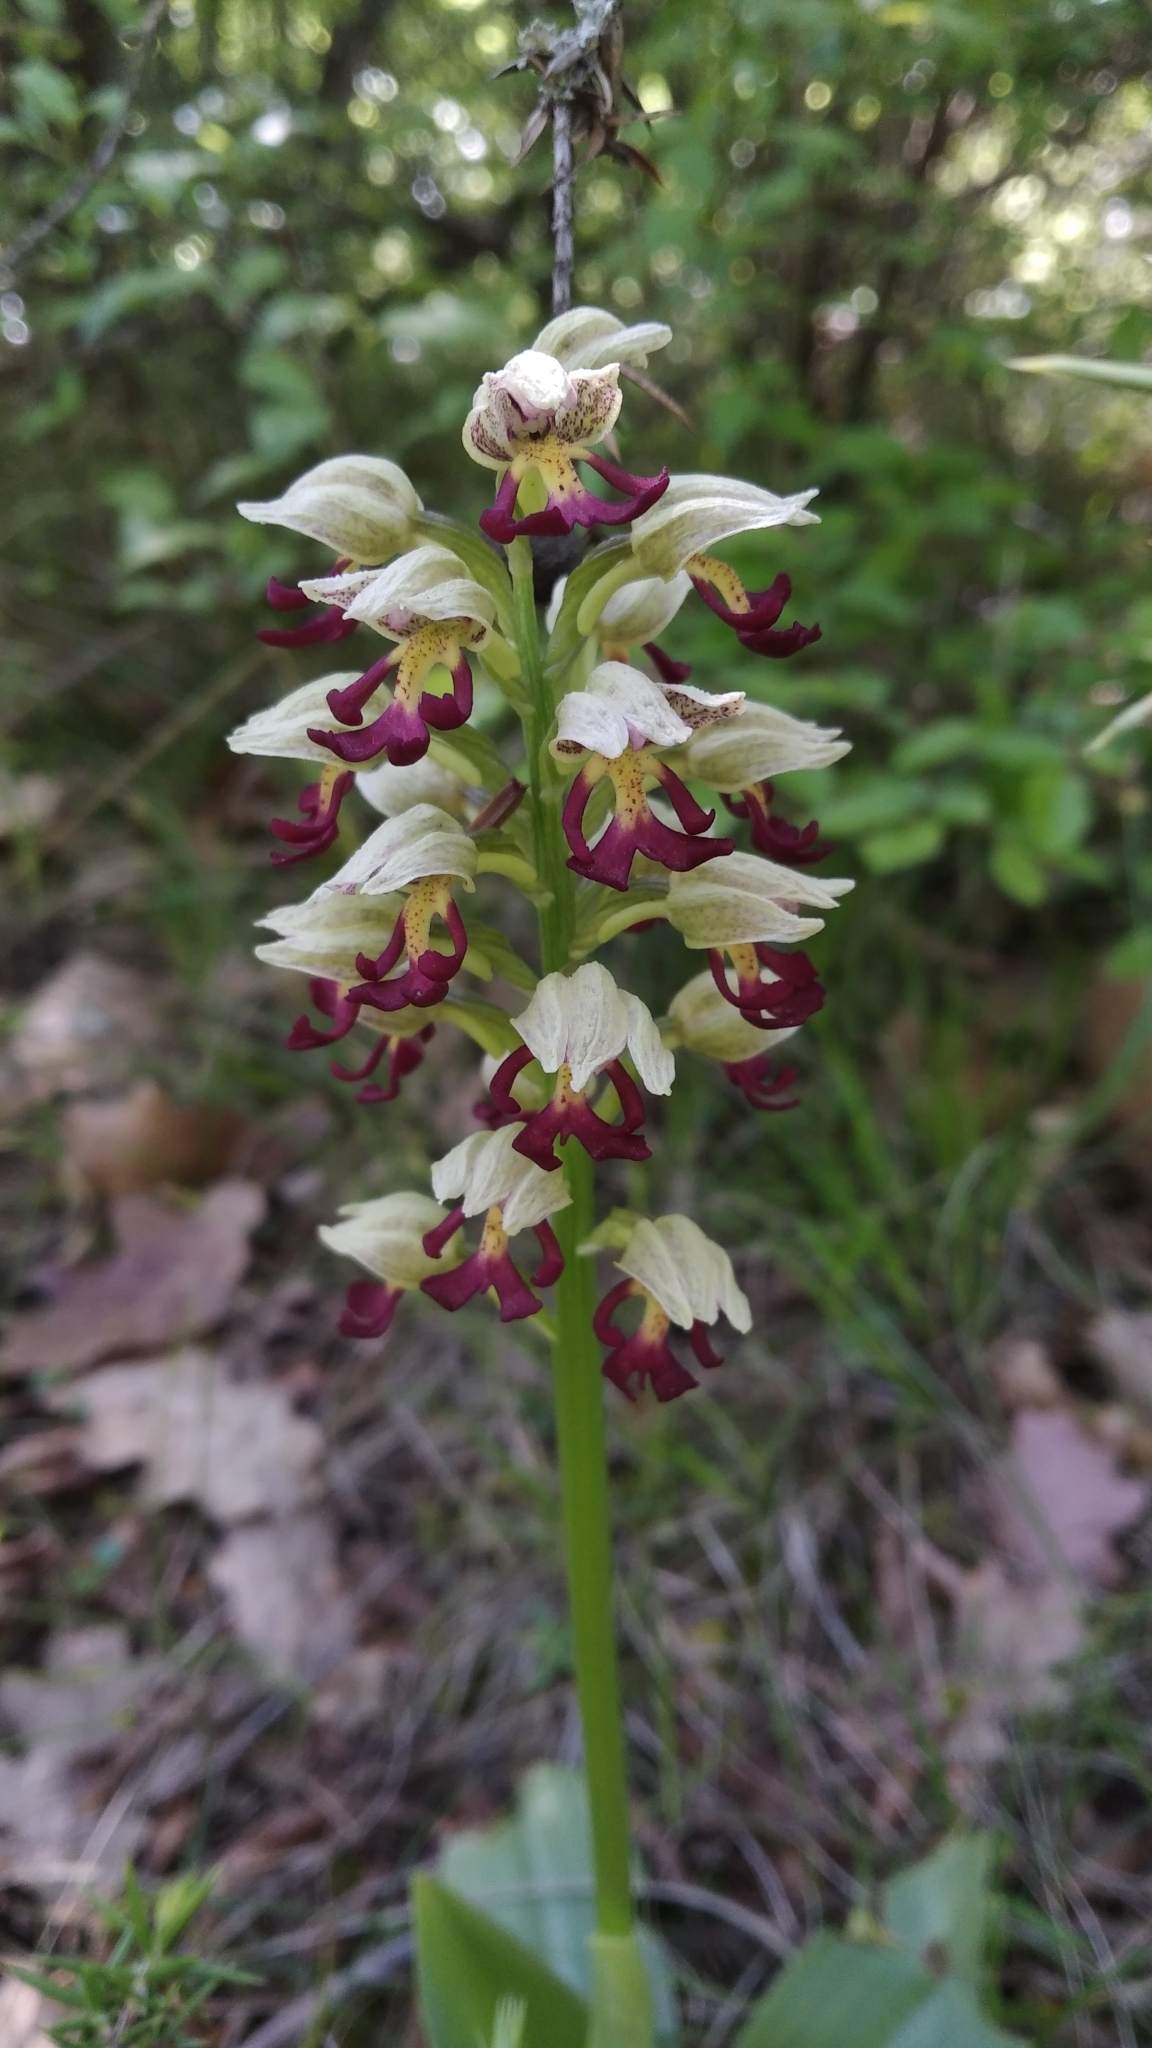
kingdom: Plantae
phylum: Tracheophyta
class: Liliopsida
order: Asparagales
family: Orchidaceae
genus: Orchis
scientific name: Orchis calliantha
